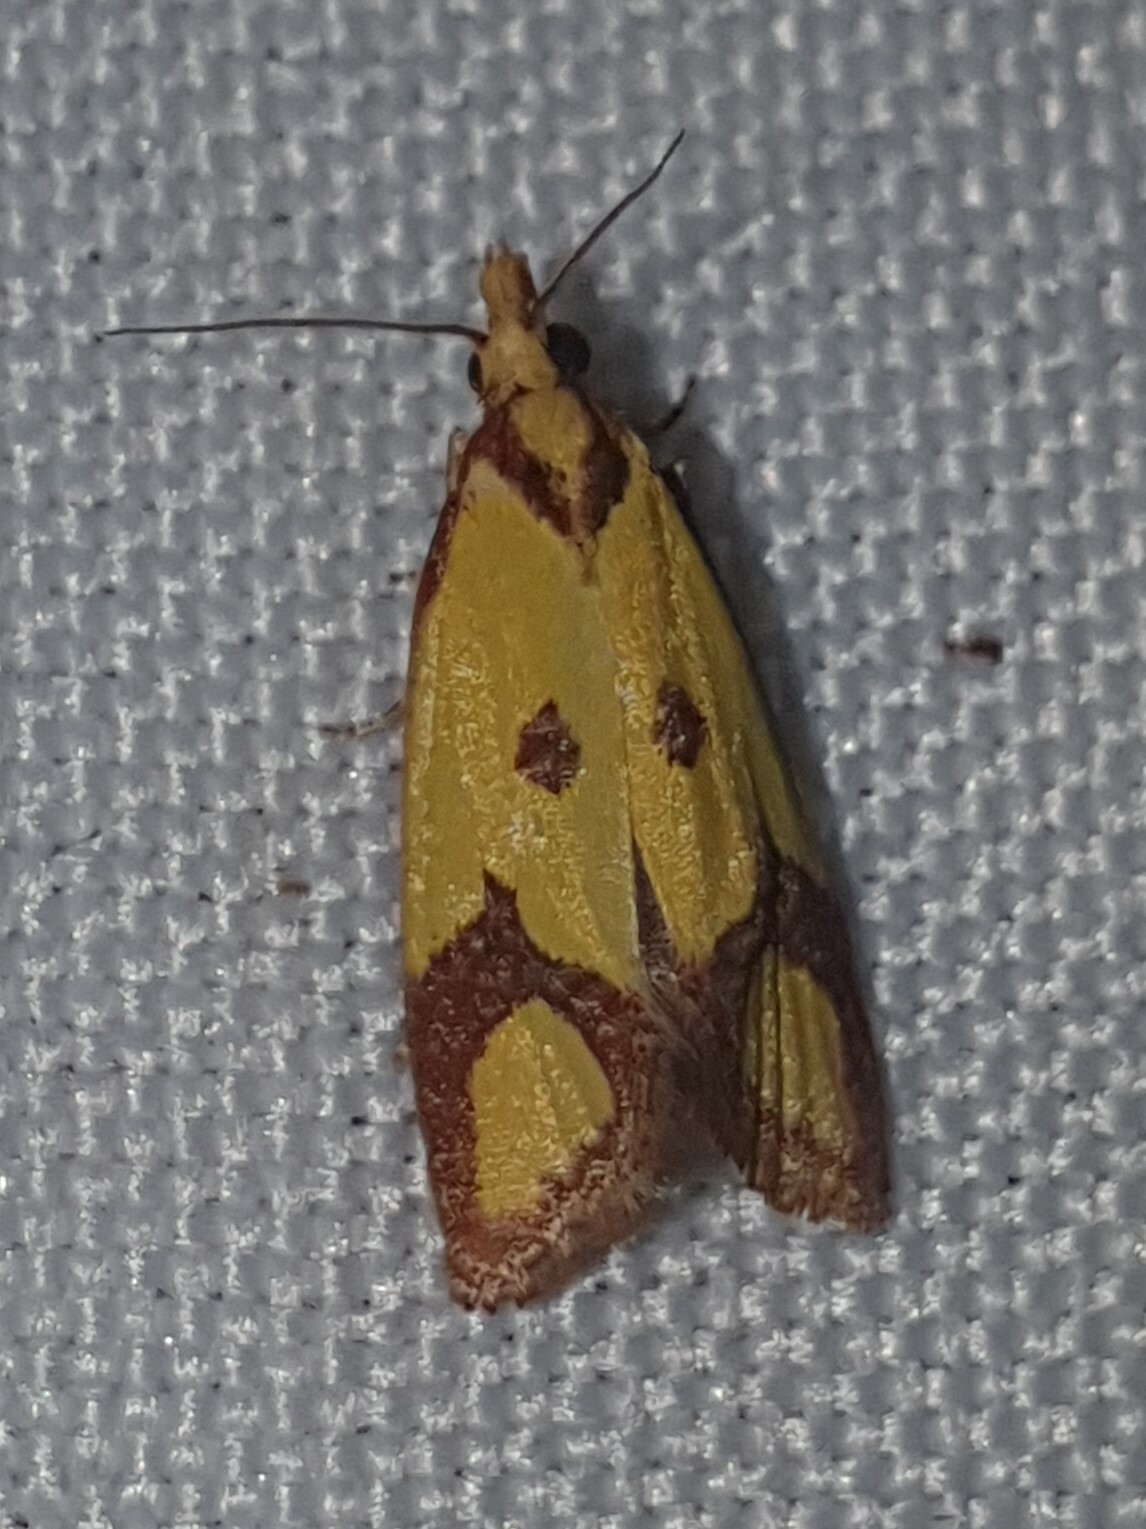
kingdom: Animalia
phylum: Arthropoda
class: Insecta
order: Lepidoptera
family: Tortricidae
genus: Agapeta
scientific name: Agapeta zoegana
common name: Sulfur knapweed root moth
